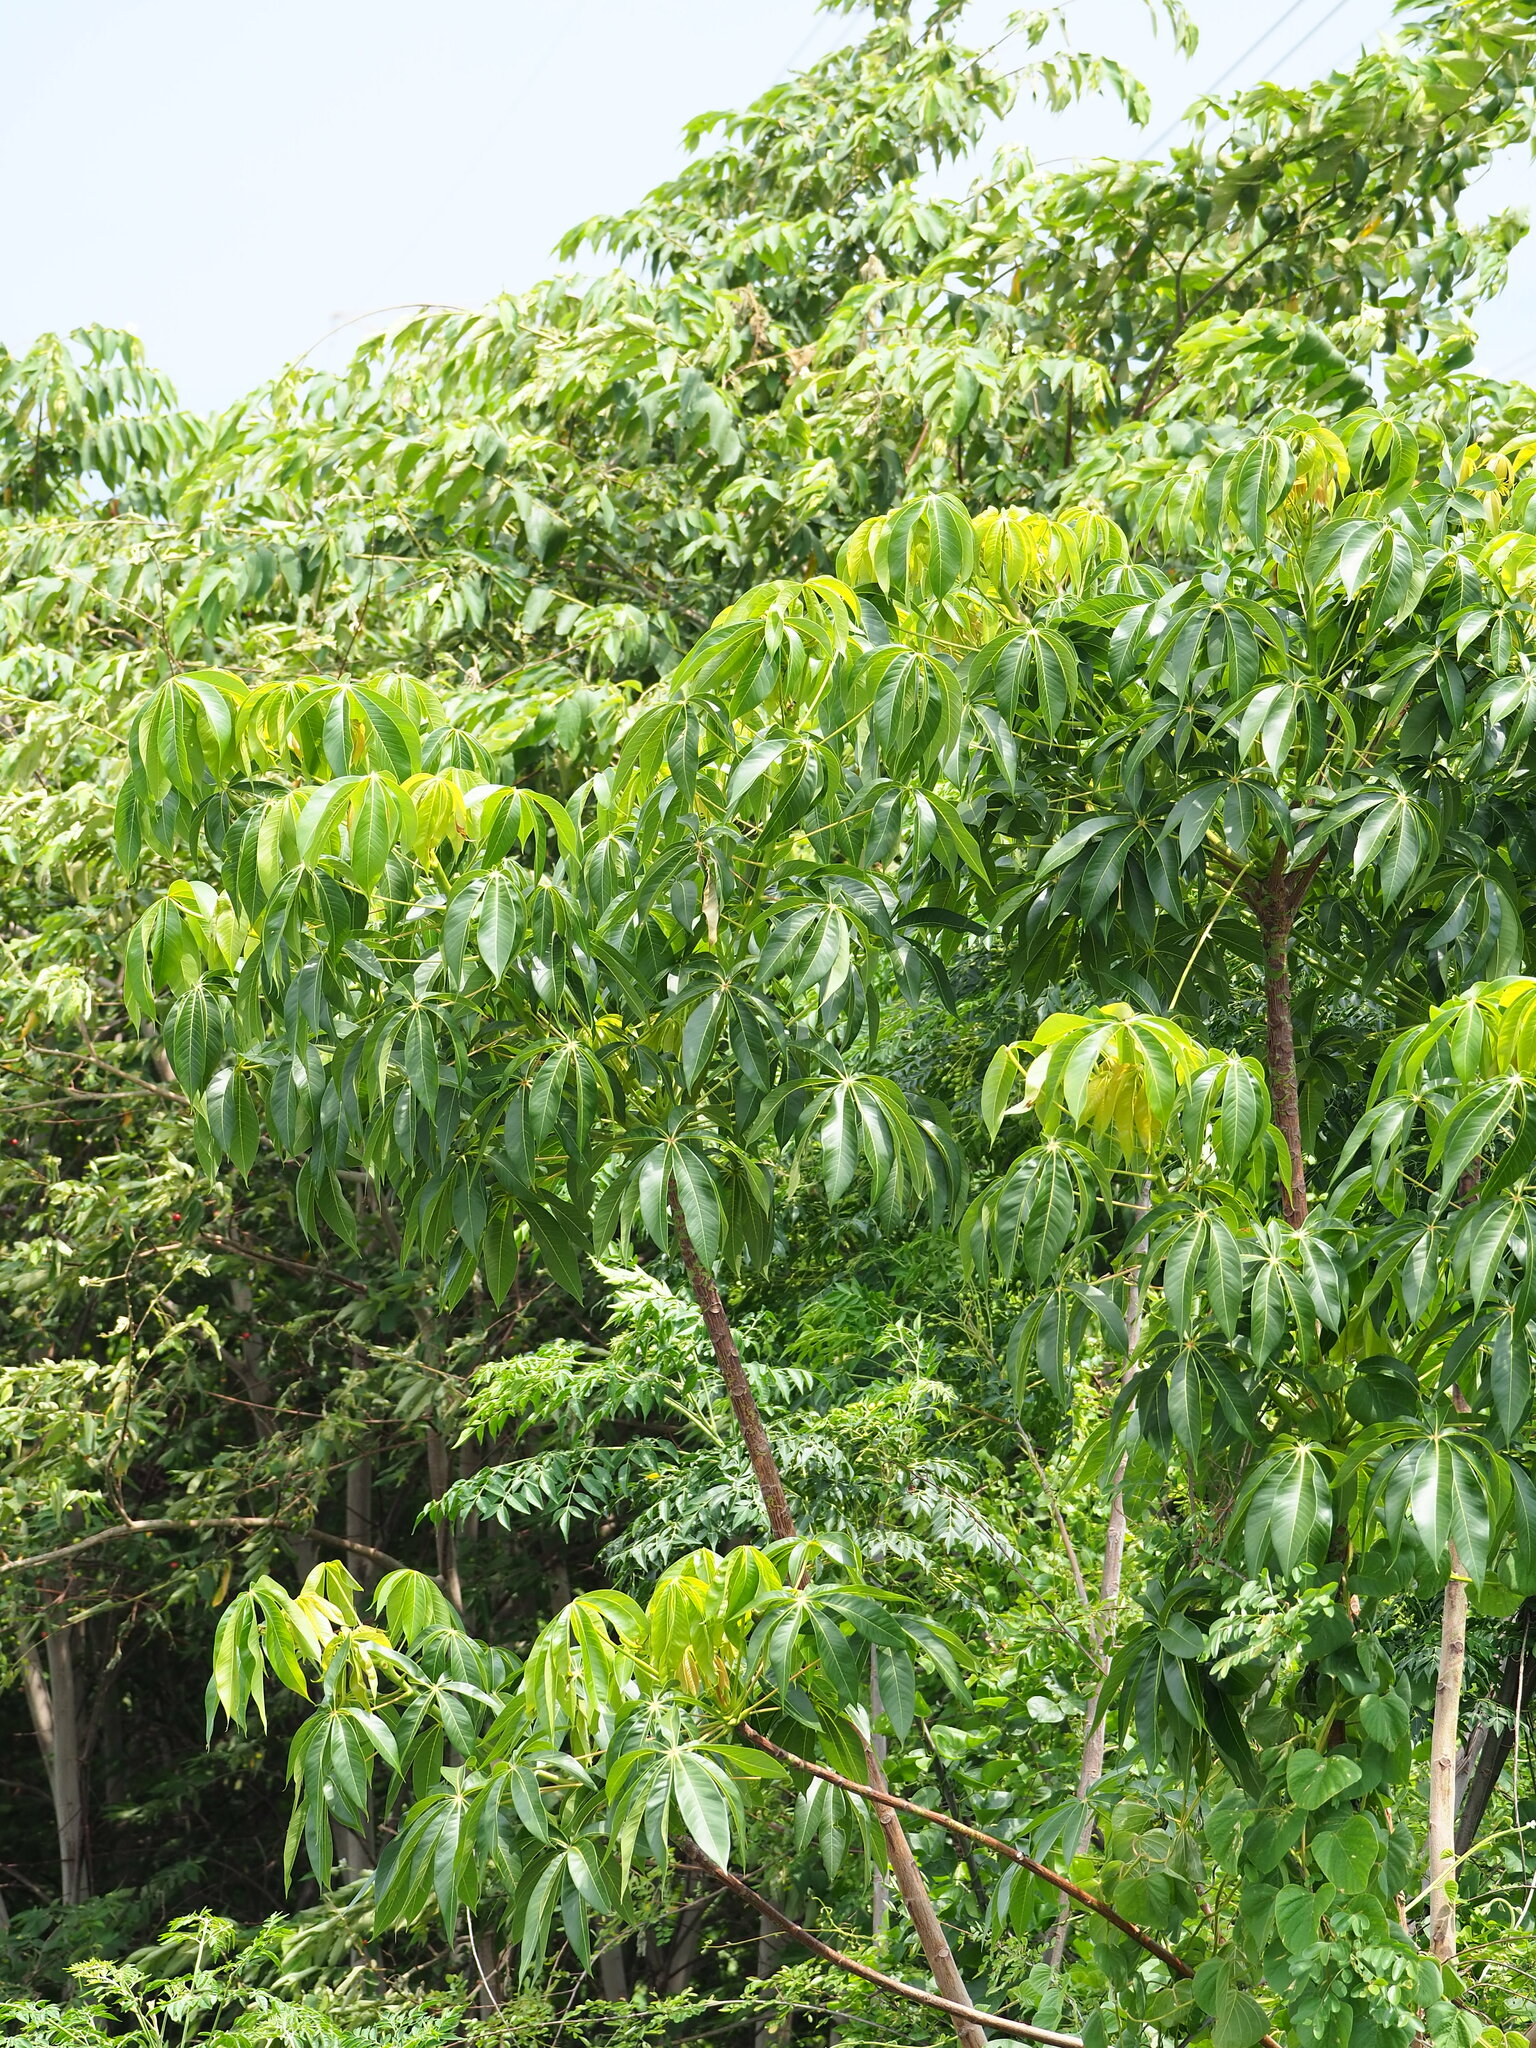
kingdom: Plantae
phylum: Tracheophyta
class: Magnoliopsida
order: Malvales
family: Malvaceae
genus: Sterculia
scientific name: Sterculia foetida
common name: Hazel sterculia
